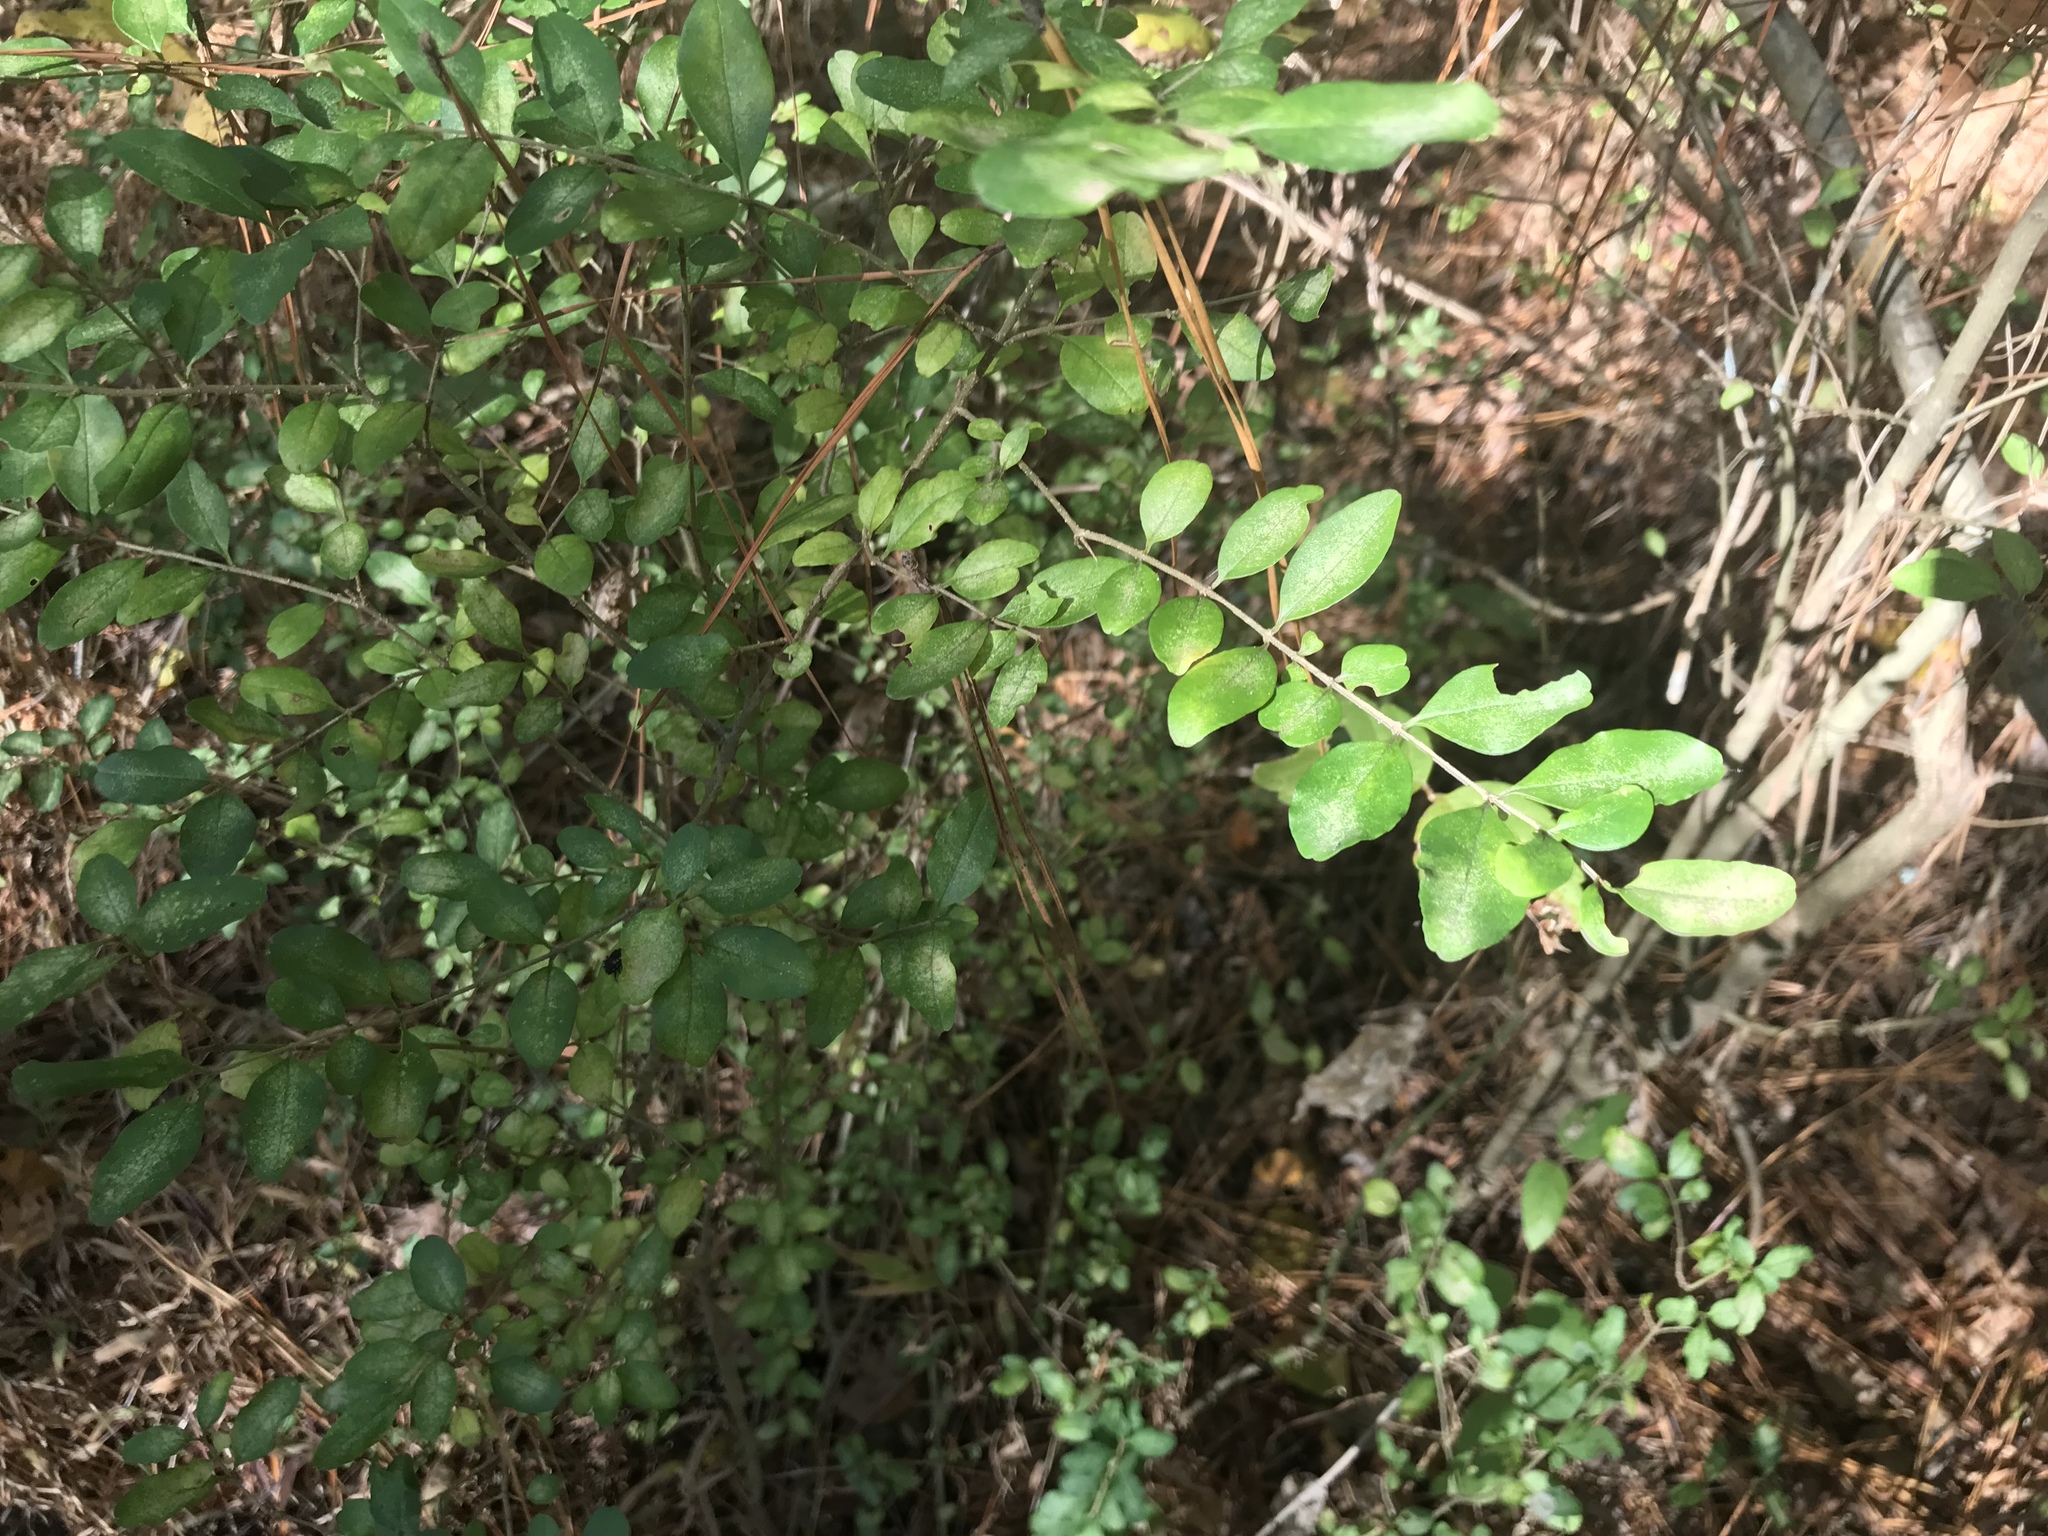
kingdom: Plantae
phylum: Tracheophyta
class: Magnoliopsida
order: Lamiales
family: Oleaceae
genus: Ligustrum
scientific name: Ligustrum sinense
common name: Chinese privet
